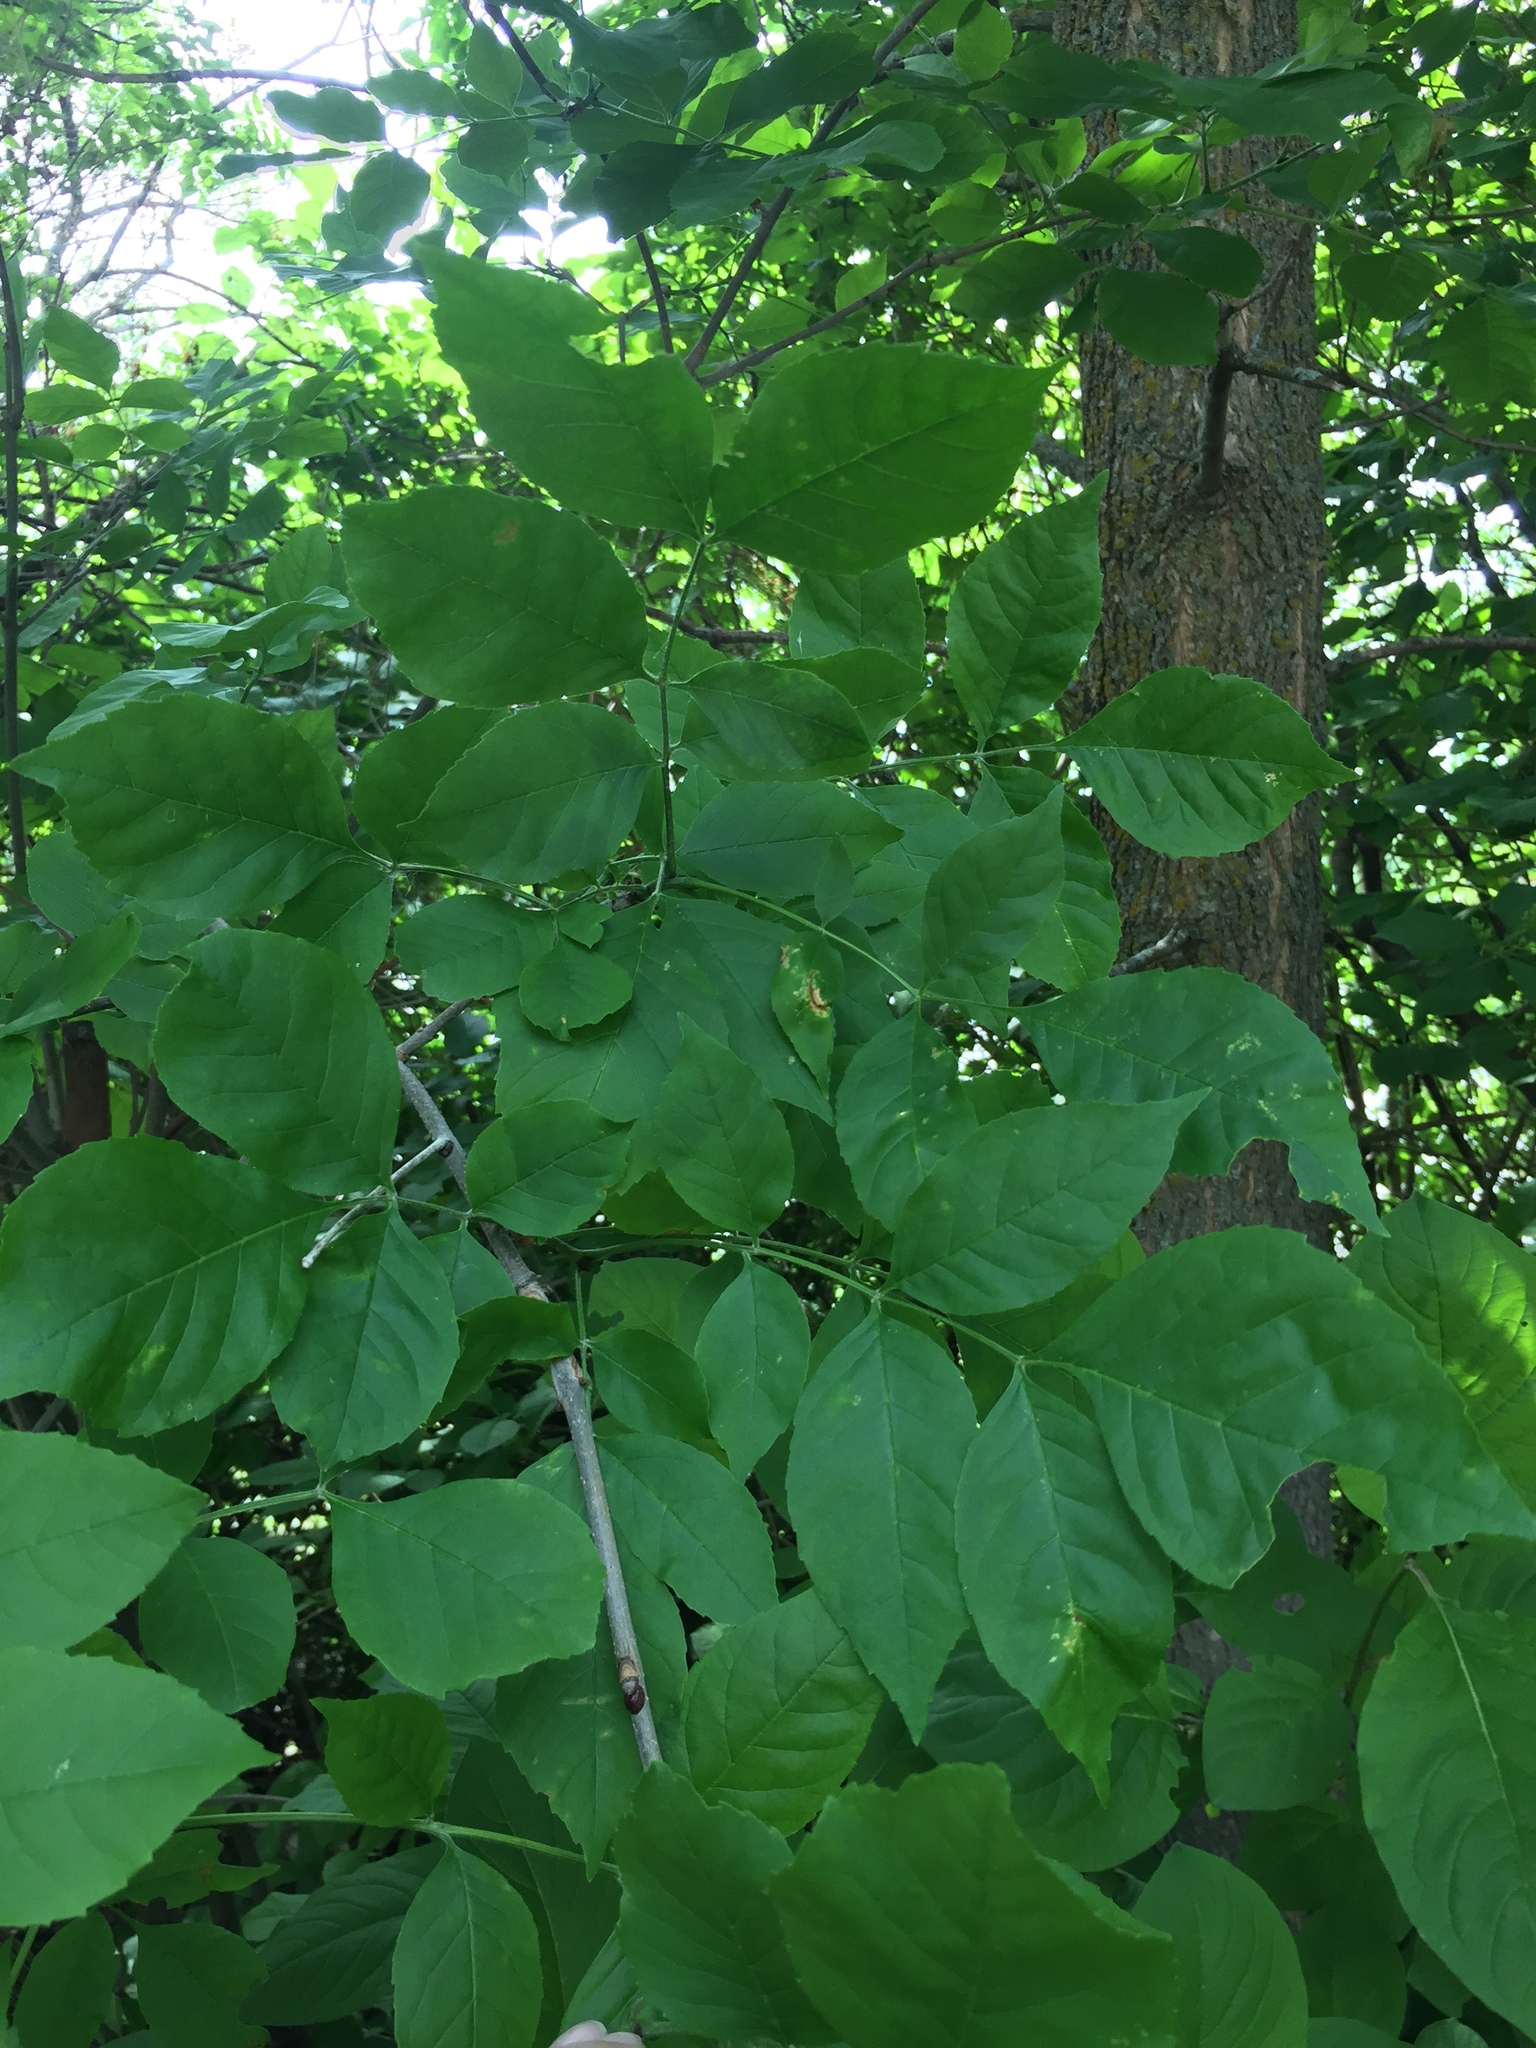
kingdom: Plantae
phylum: Tracheophyta
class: Magnoliopsida
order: Lamiales
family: Oleaceae
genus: Fraxinus
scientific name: Fraxinus pennsylvanica
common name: Green ash
